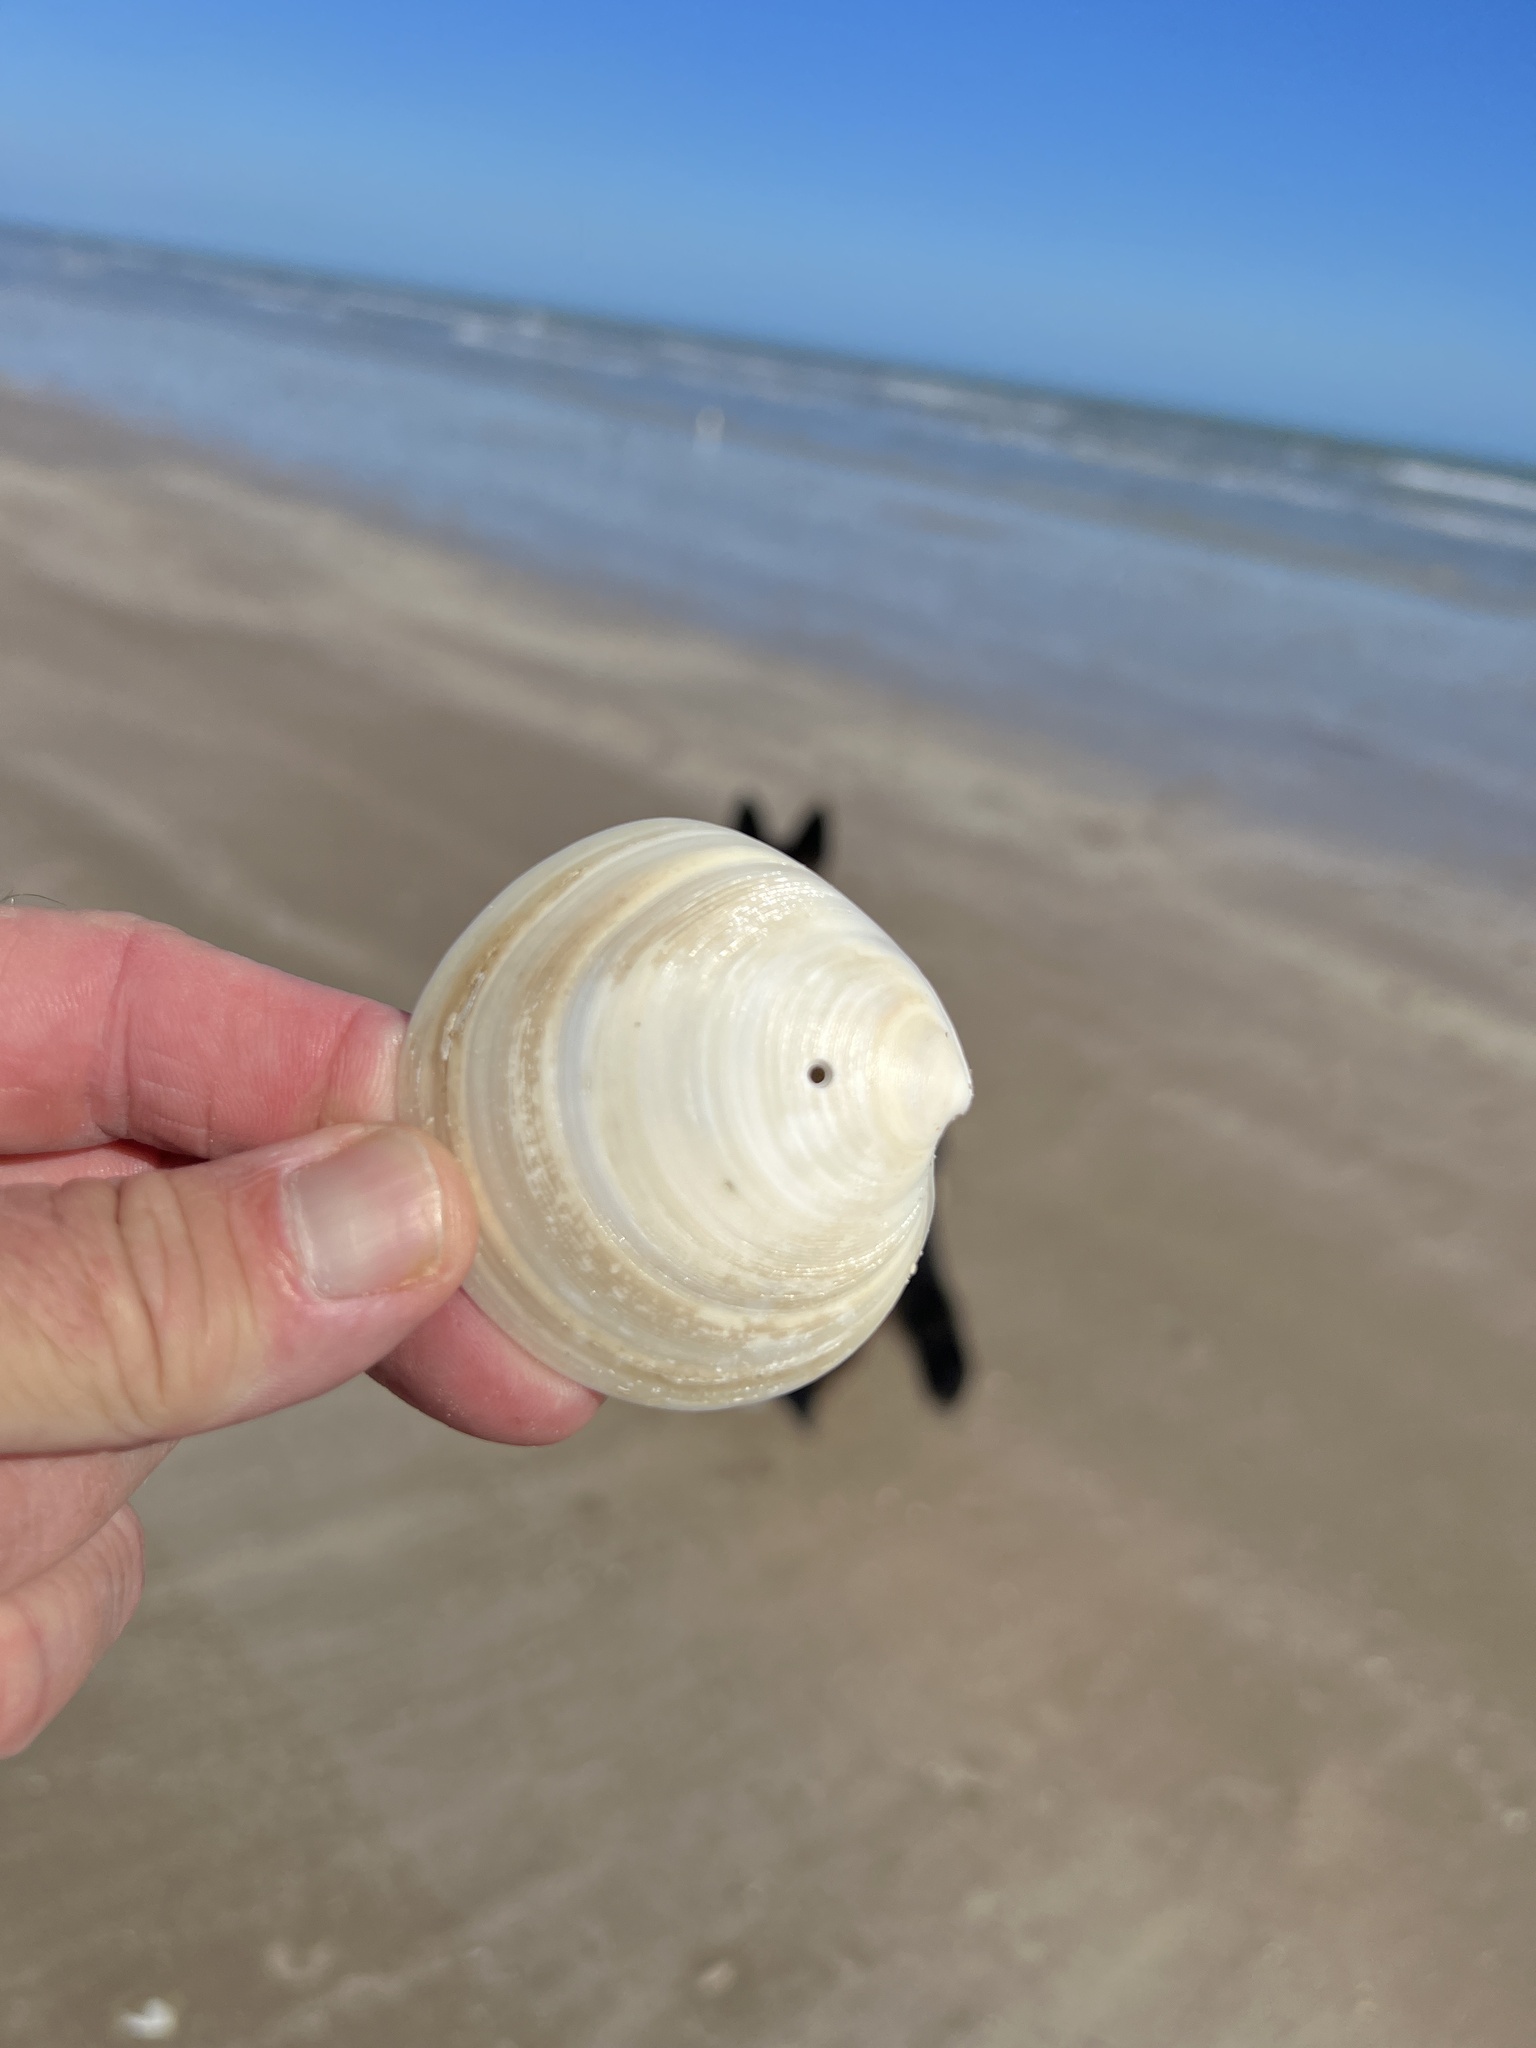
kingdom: Animalia
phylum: Mollusca
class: Bivalvia
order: Venerida
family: Veneridae
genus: Dosinia
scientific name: Dosinia discus
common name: Disk dosinia
